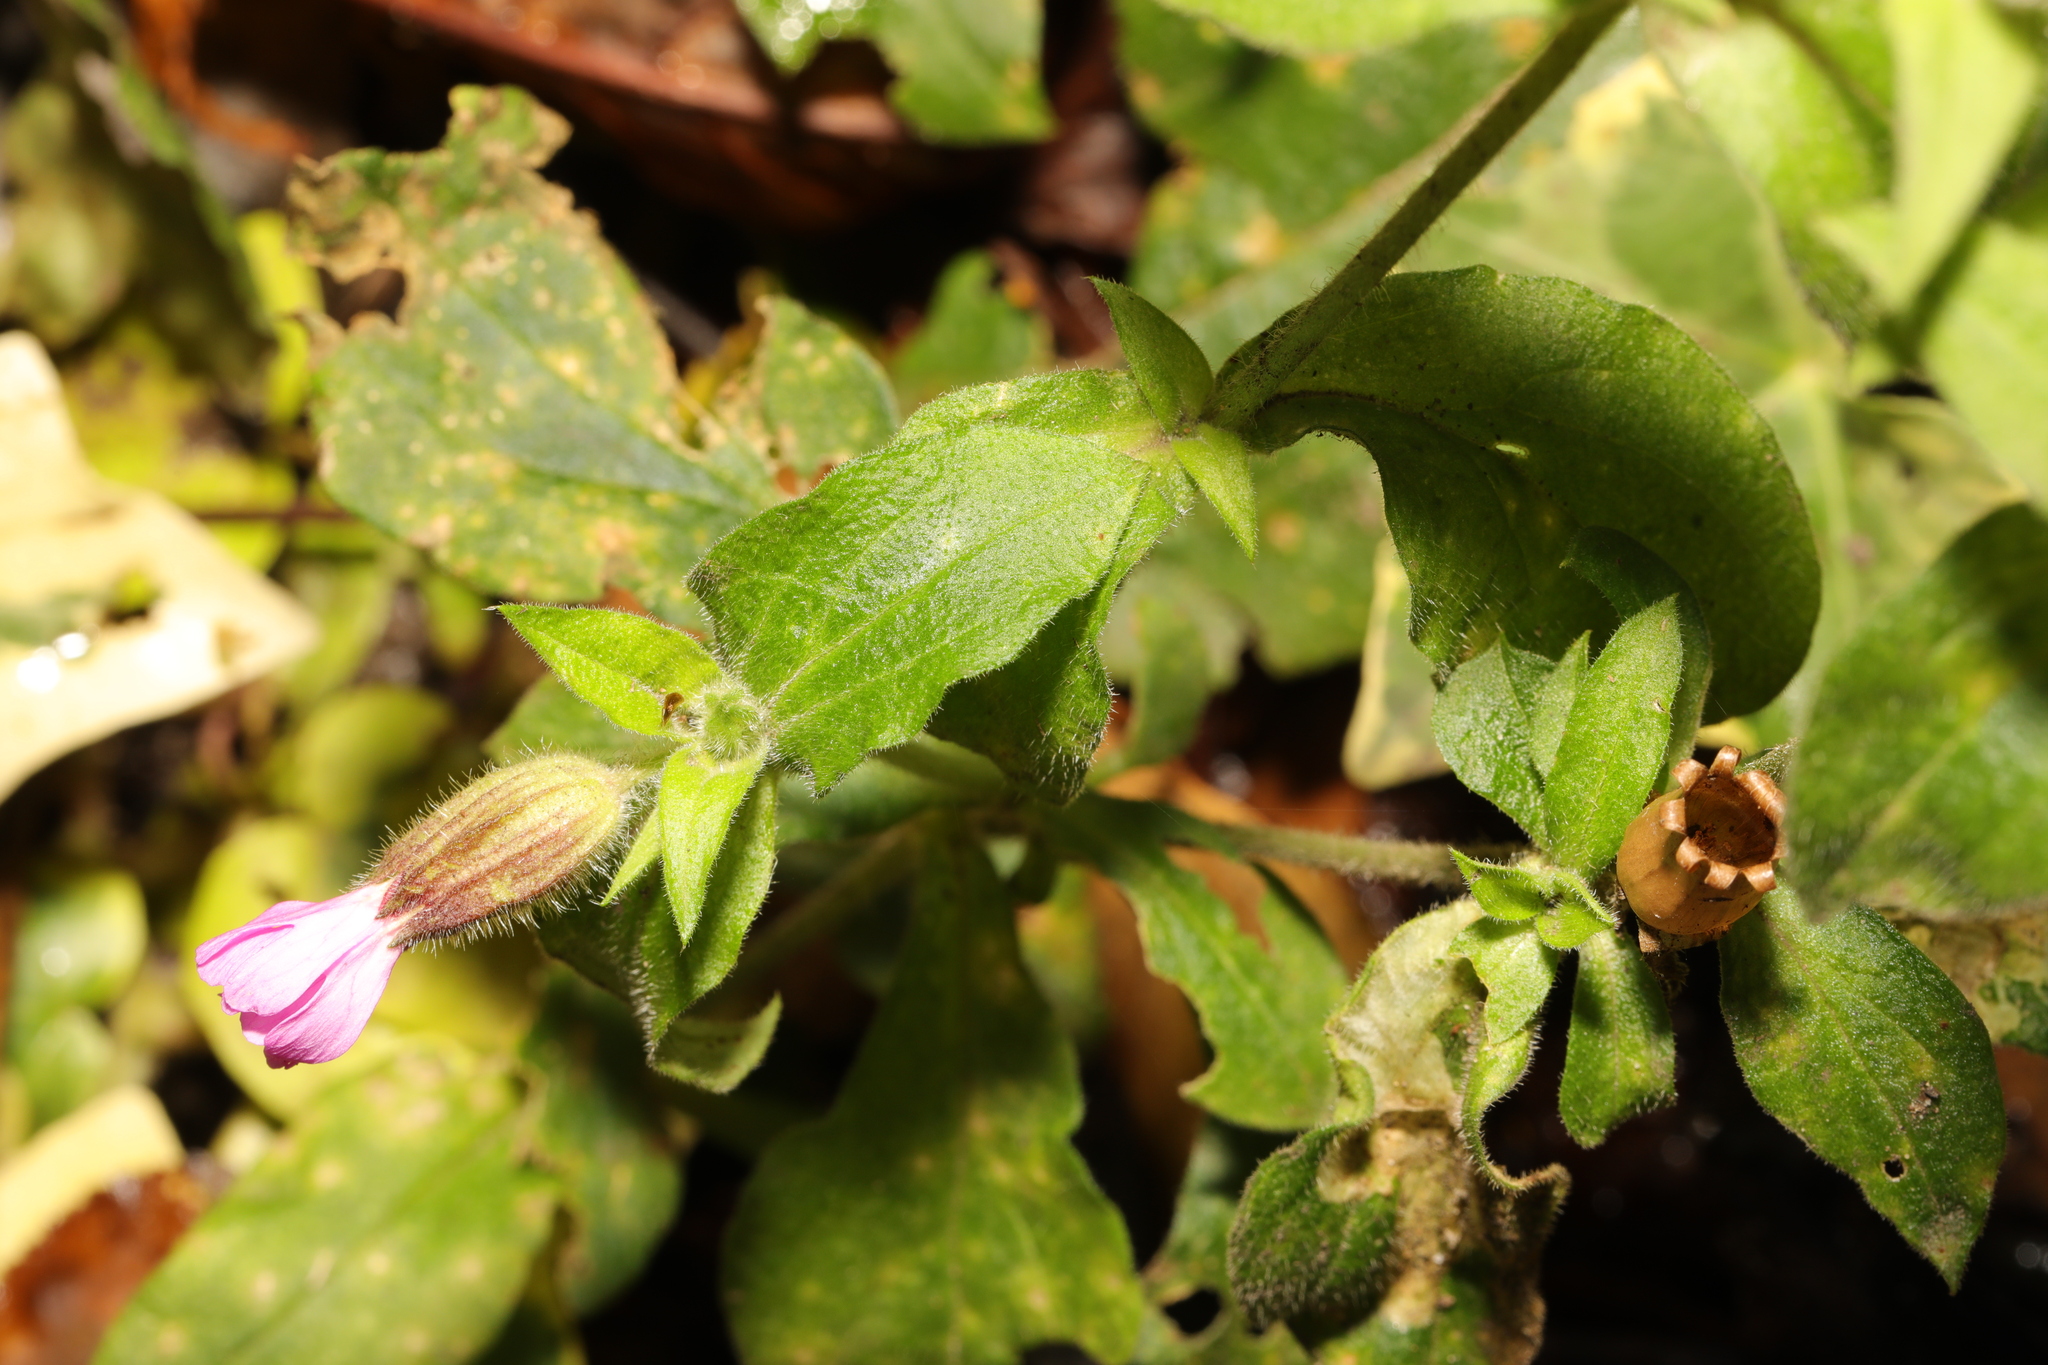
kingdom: Plantae
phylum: Tracheophyta
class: Magnoliopsida
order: Caryophyllales
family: Caryophyllaceae
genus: Silene
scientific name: Silene dioica
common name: Red campion
